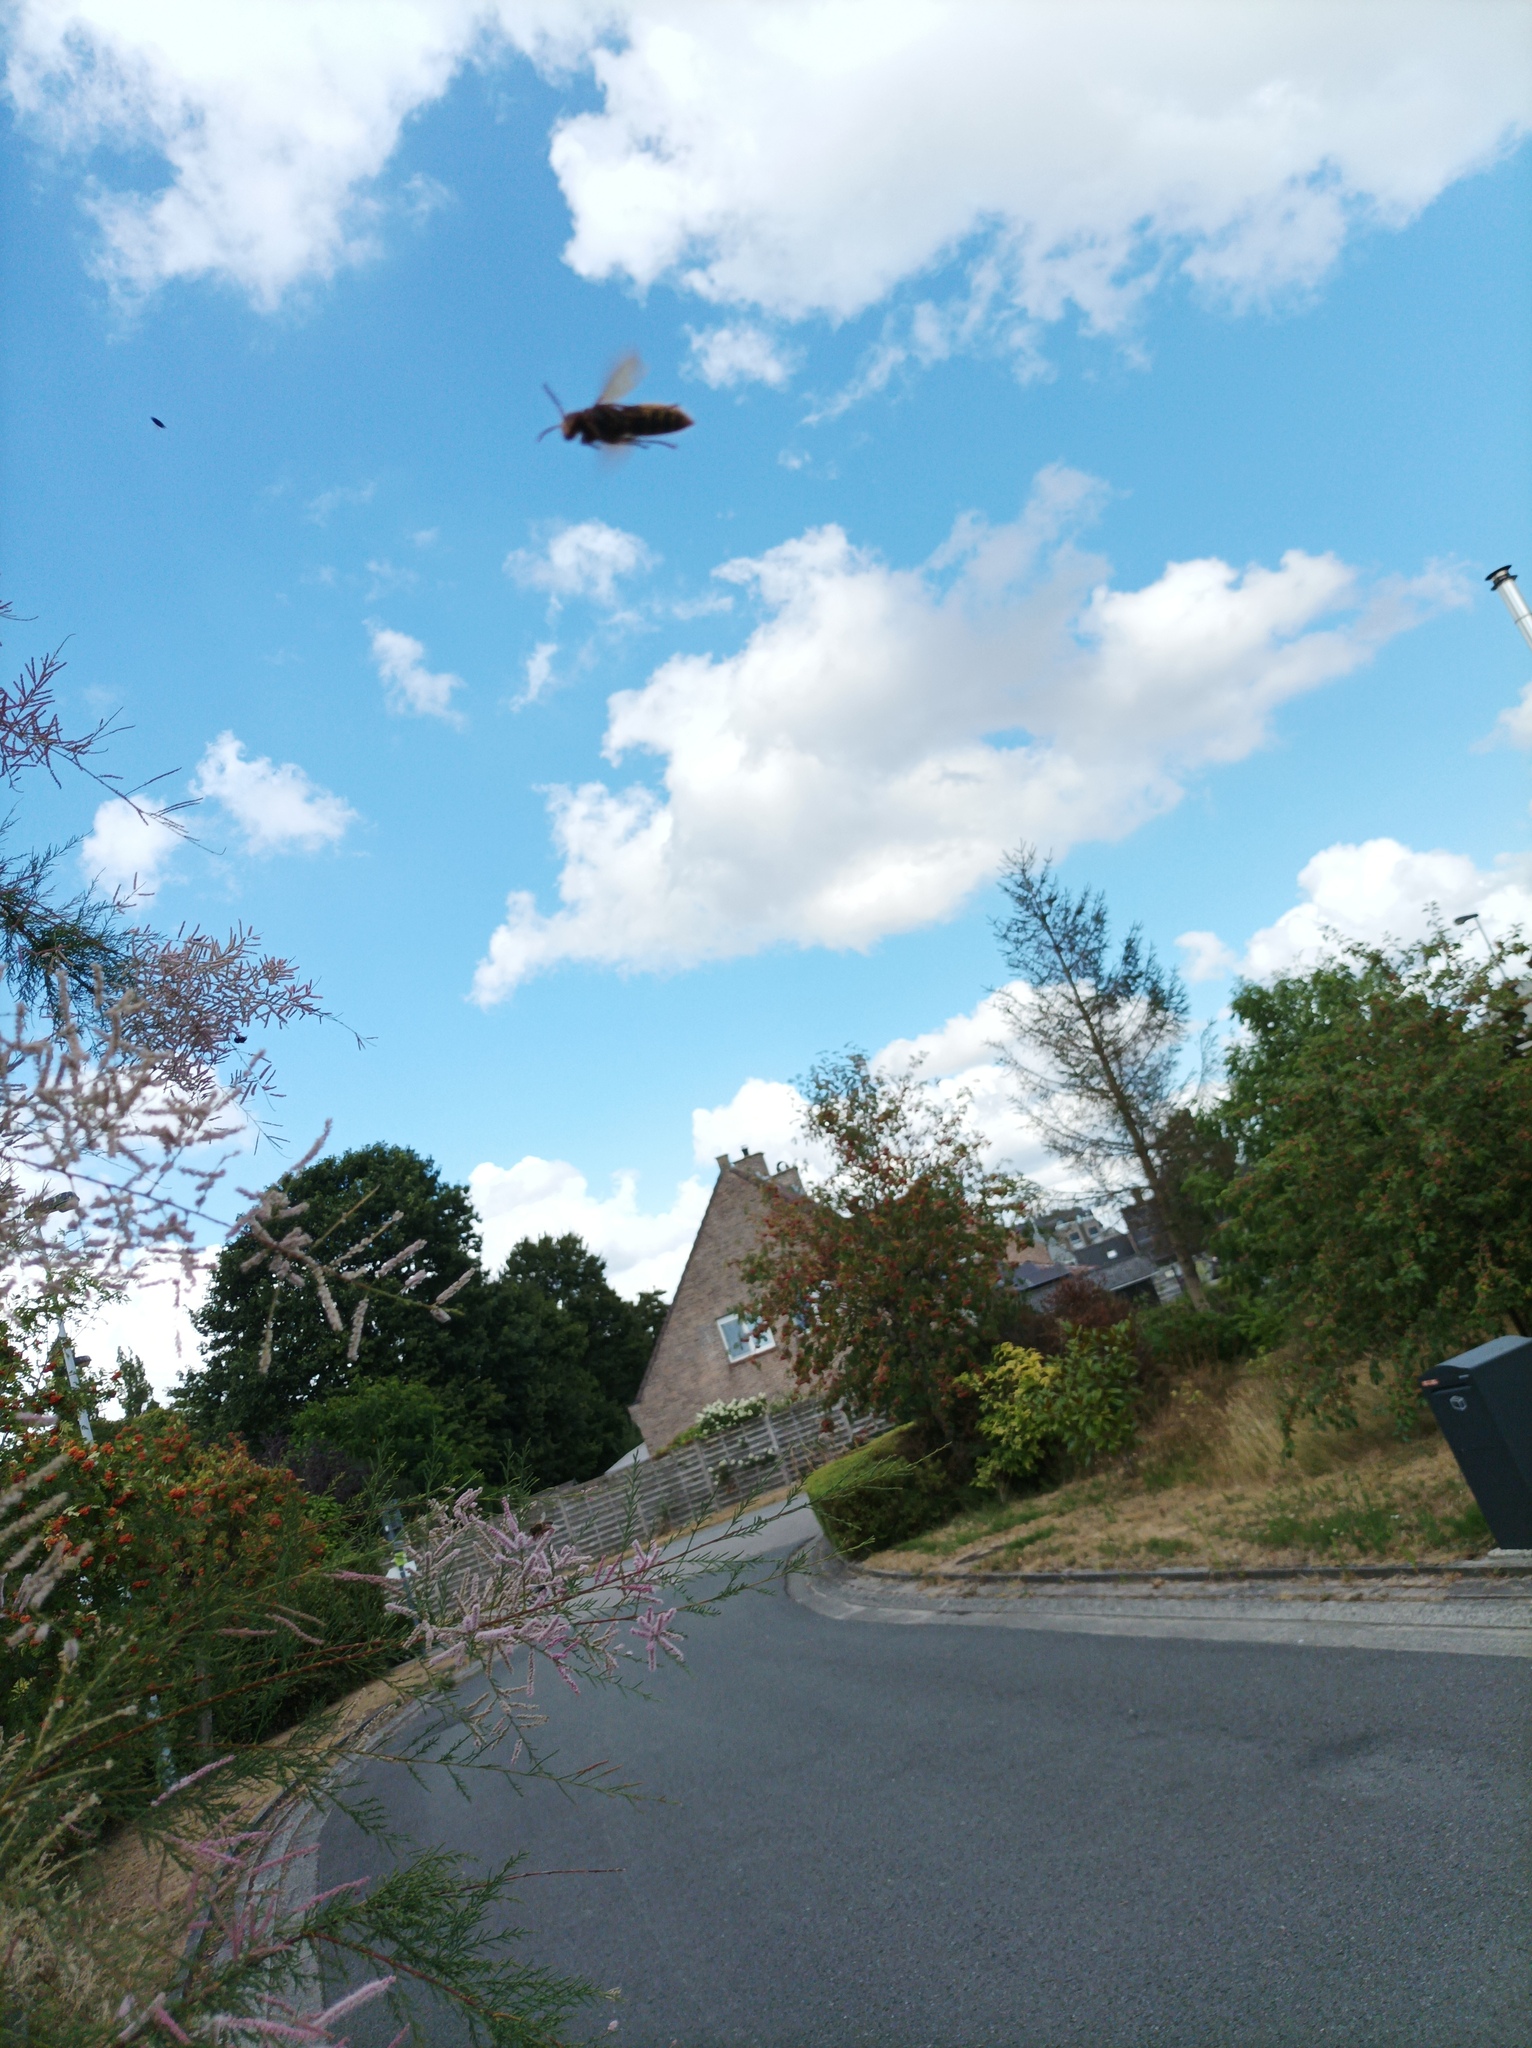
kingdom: Animalia
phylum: Arthropoda
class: Insecta
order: Hymenoptera
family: Vespidae
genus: Vespa
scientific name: Vespa crabro
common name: Hornet
